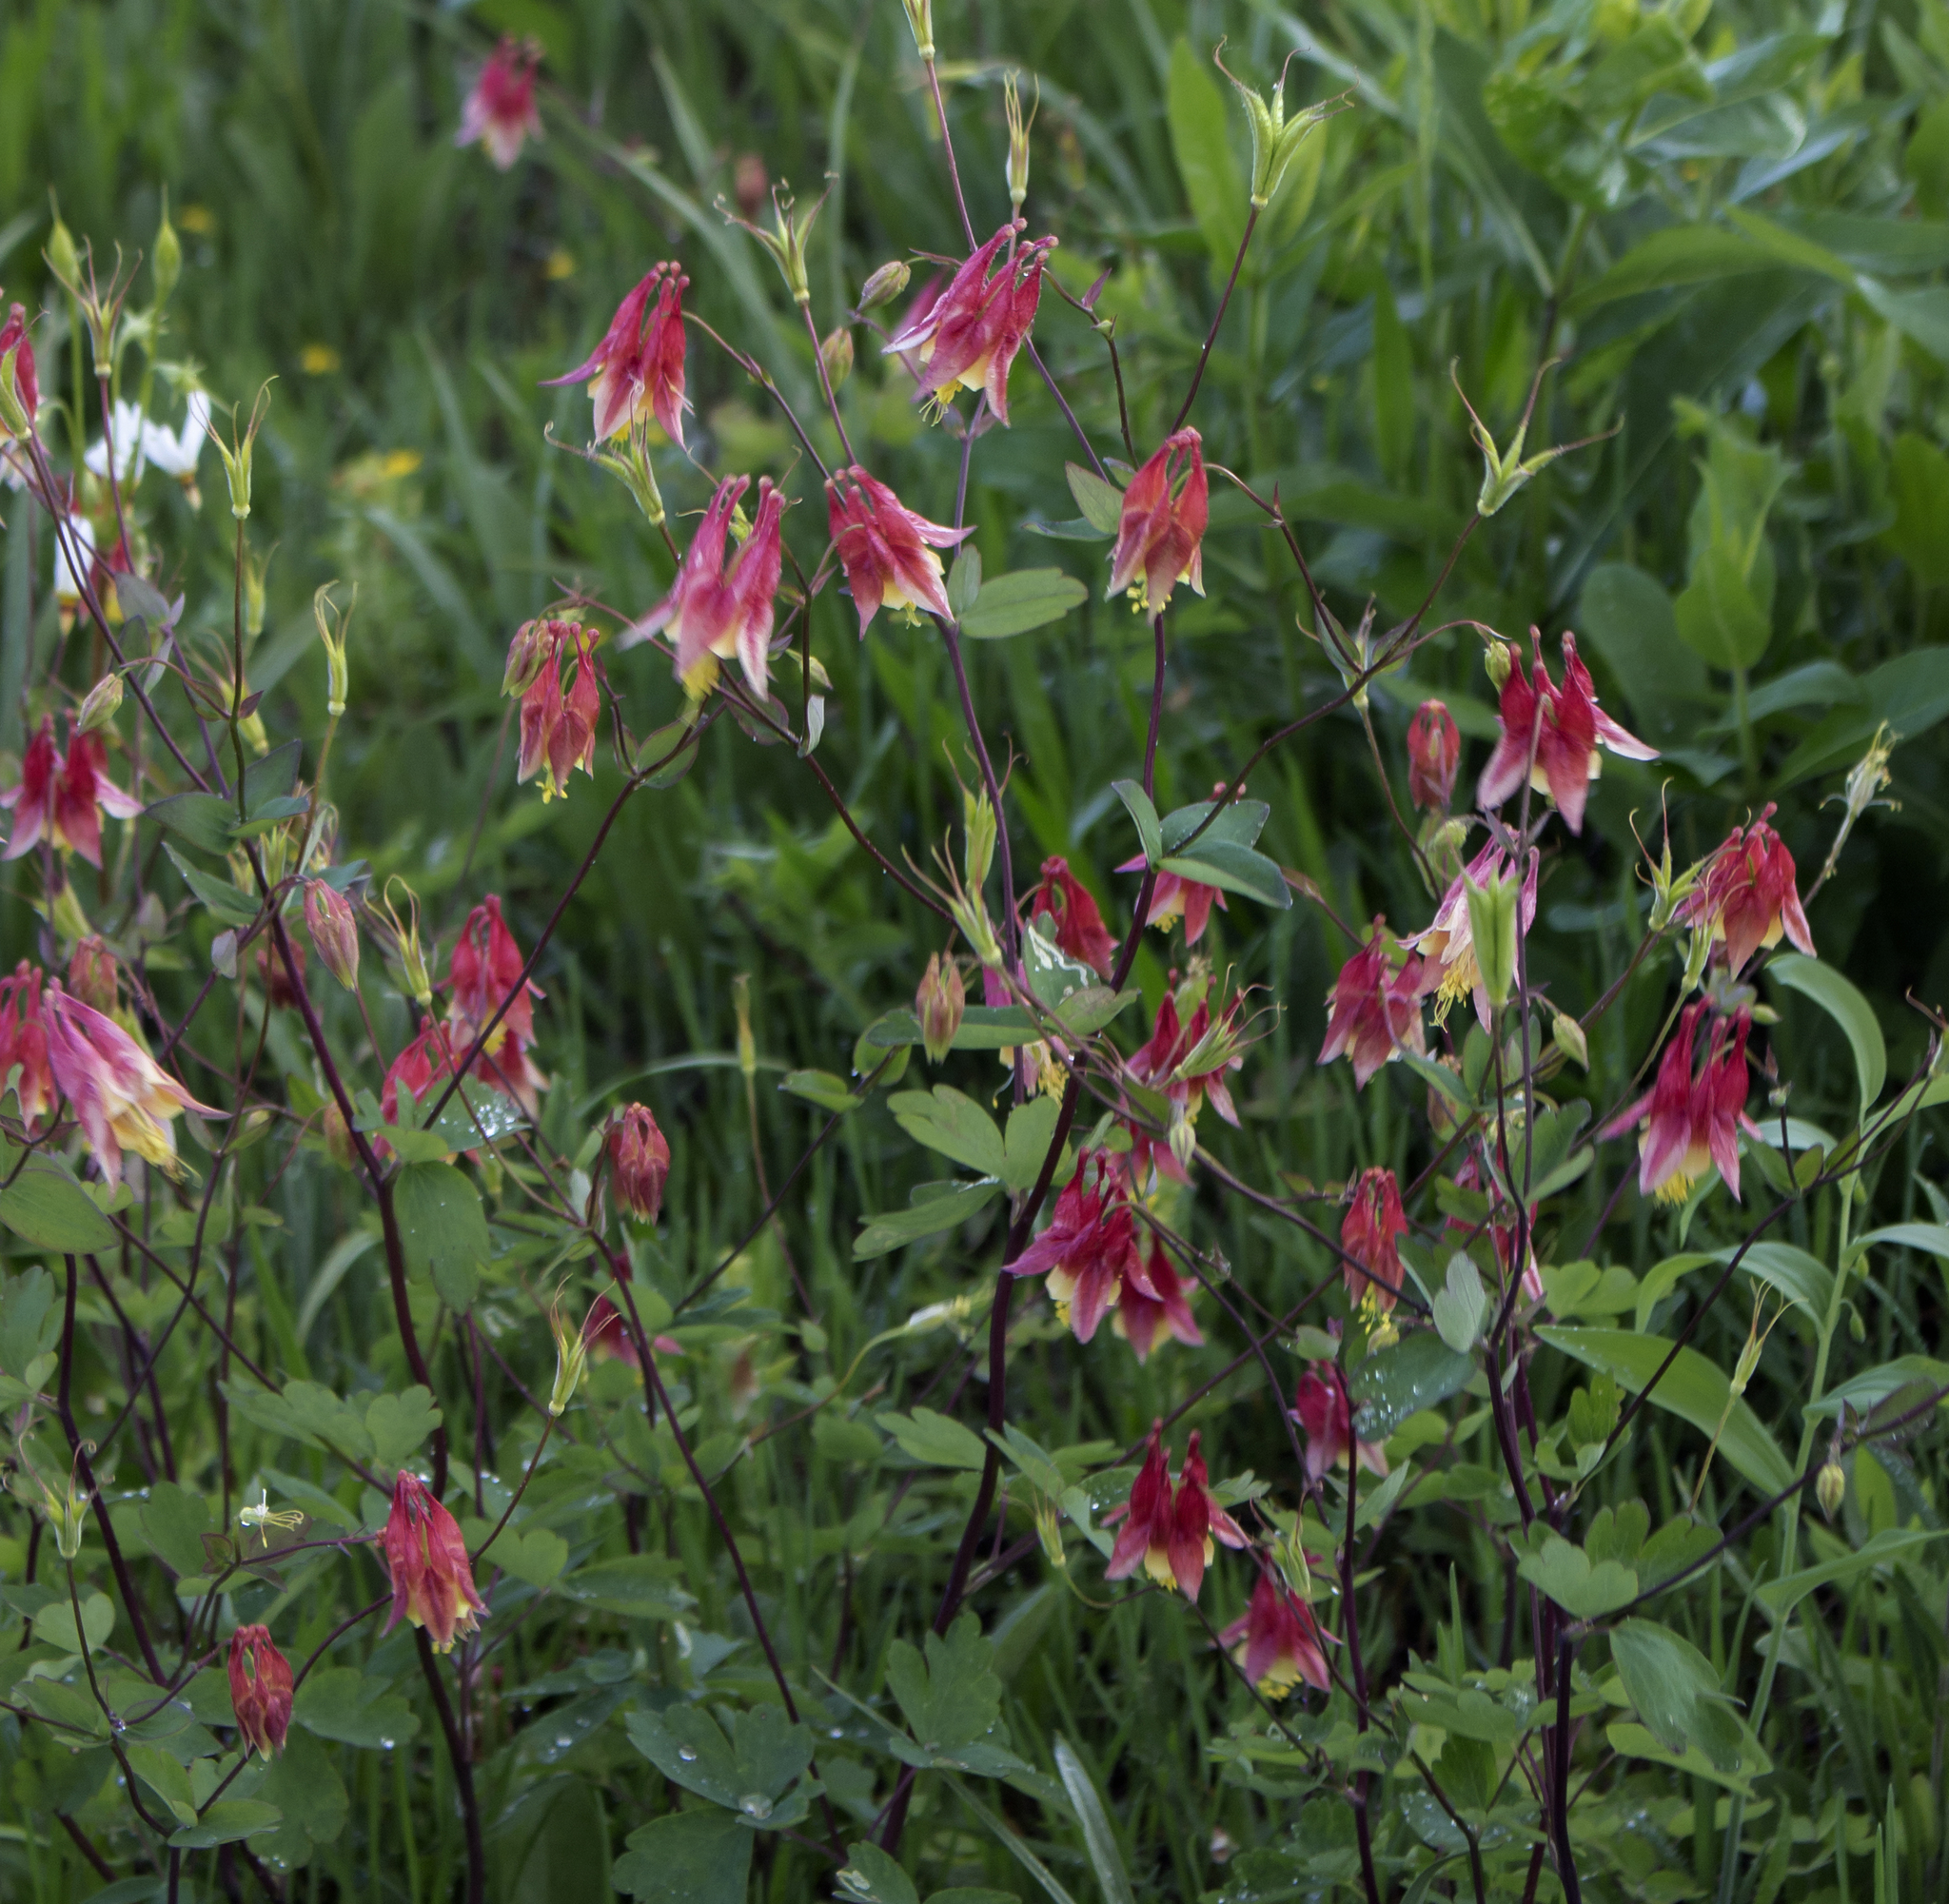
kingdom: Plantae
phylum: Tracheophyta
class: Magnoliopsida
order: Ranunculales
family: Ranunculaceae
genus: Aquilegia
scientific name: Aquilegia canadensis
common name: American columbine
